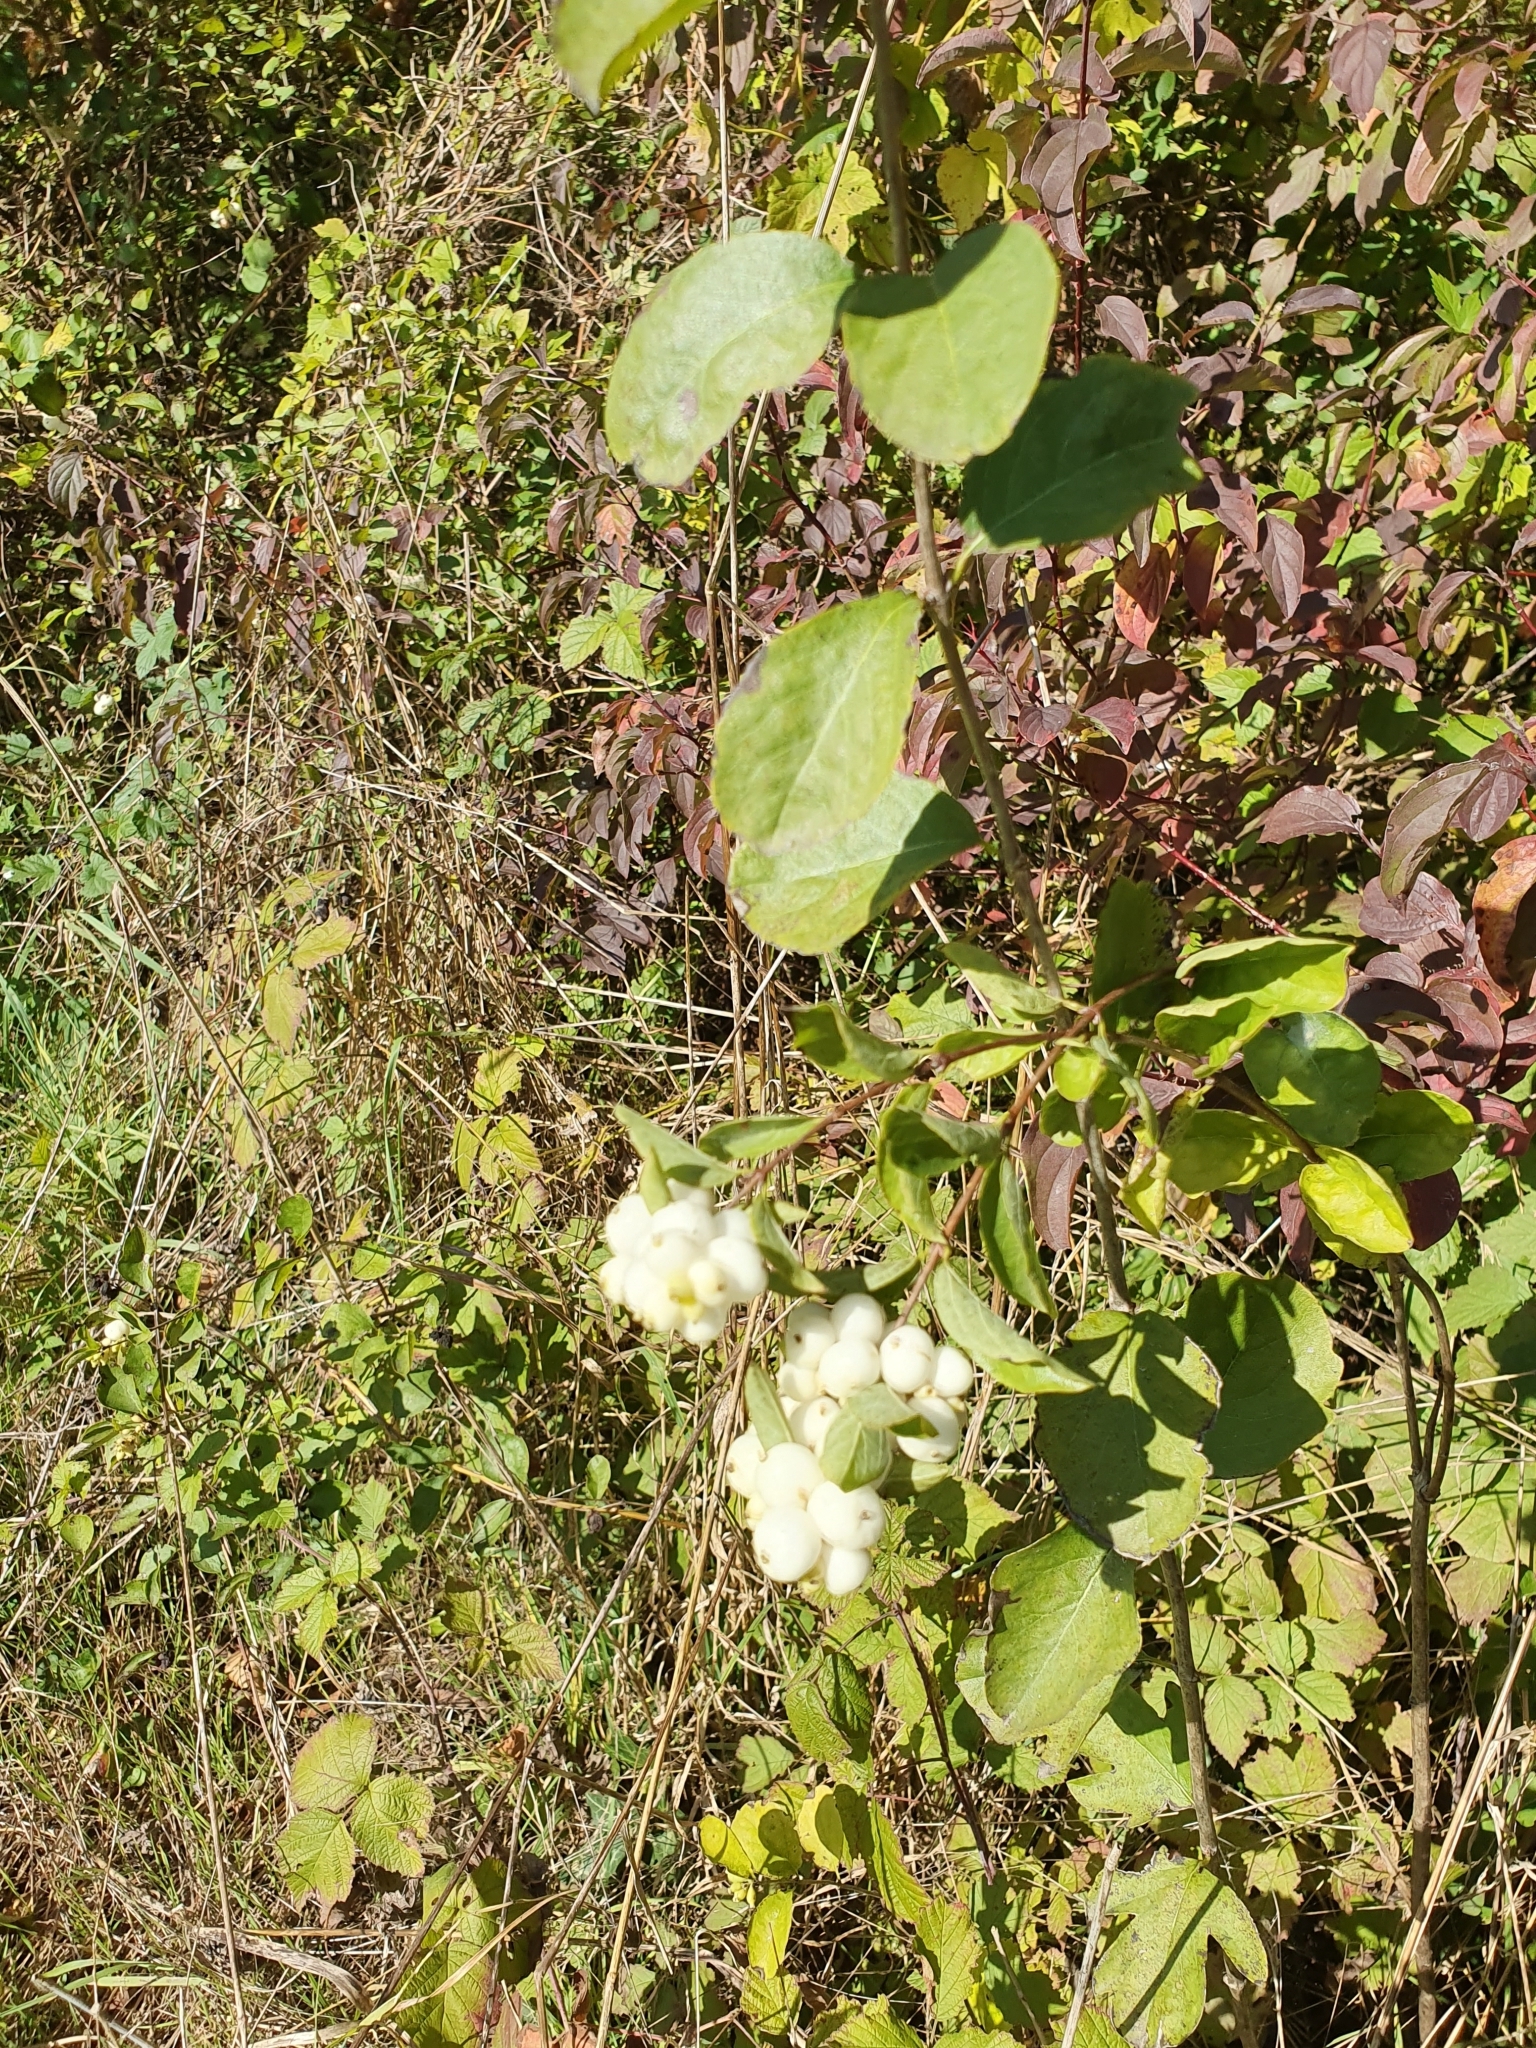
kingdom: Plantae
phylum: Tracheophyta
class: Magnoliopsida
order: Dipsacales
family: Caprifoliaceae
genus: Symphoricarpos
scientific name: Symphoricarpos albus
